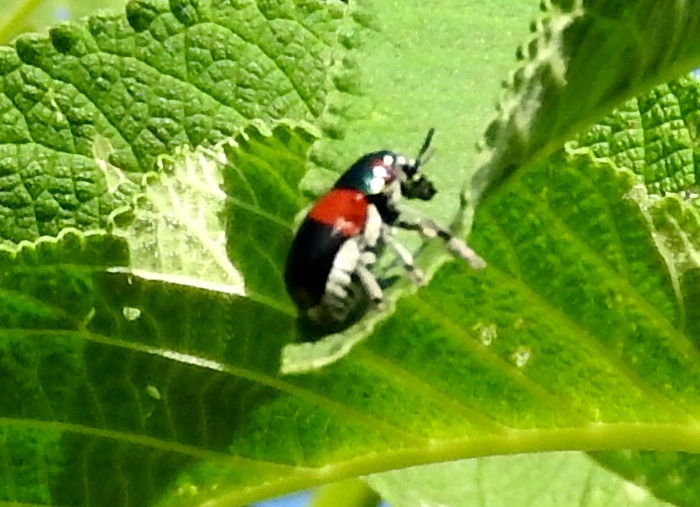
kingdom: Animalia
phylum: Arthropoda
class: Insecta
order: Coleoptera
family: Chrysomelidae
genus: Megalostomis
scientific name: Megalostomis pyropyga
